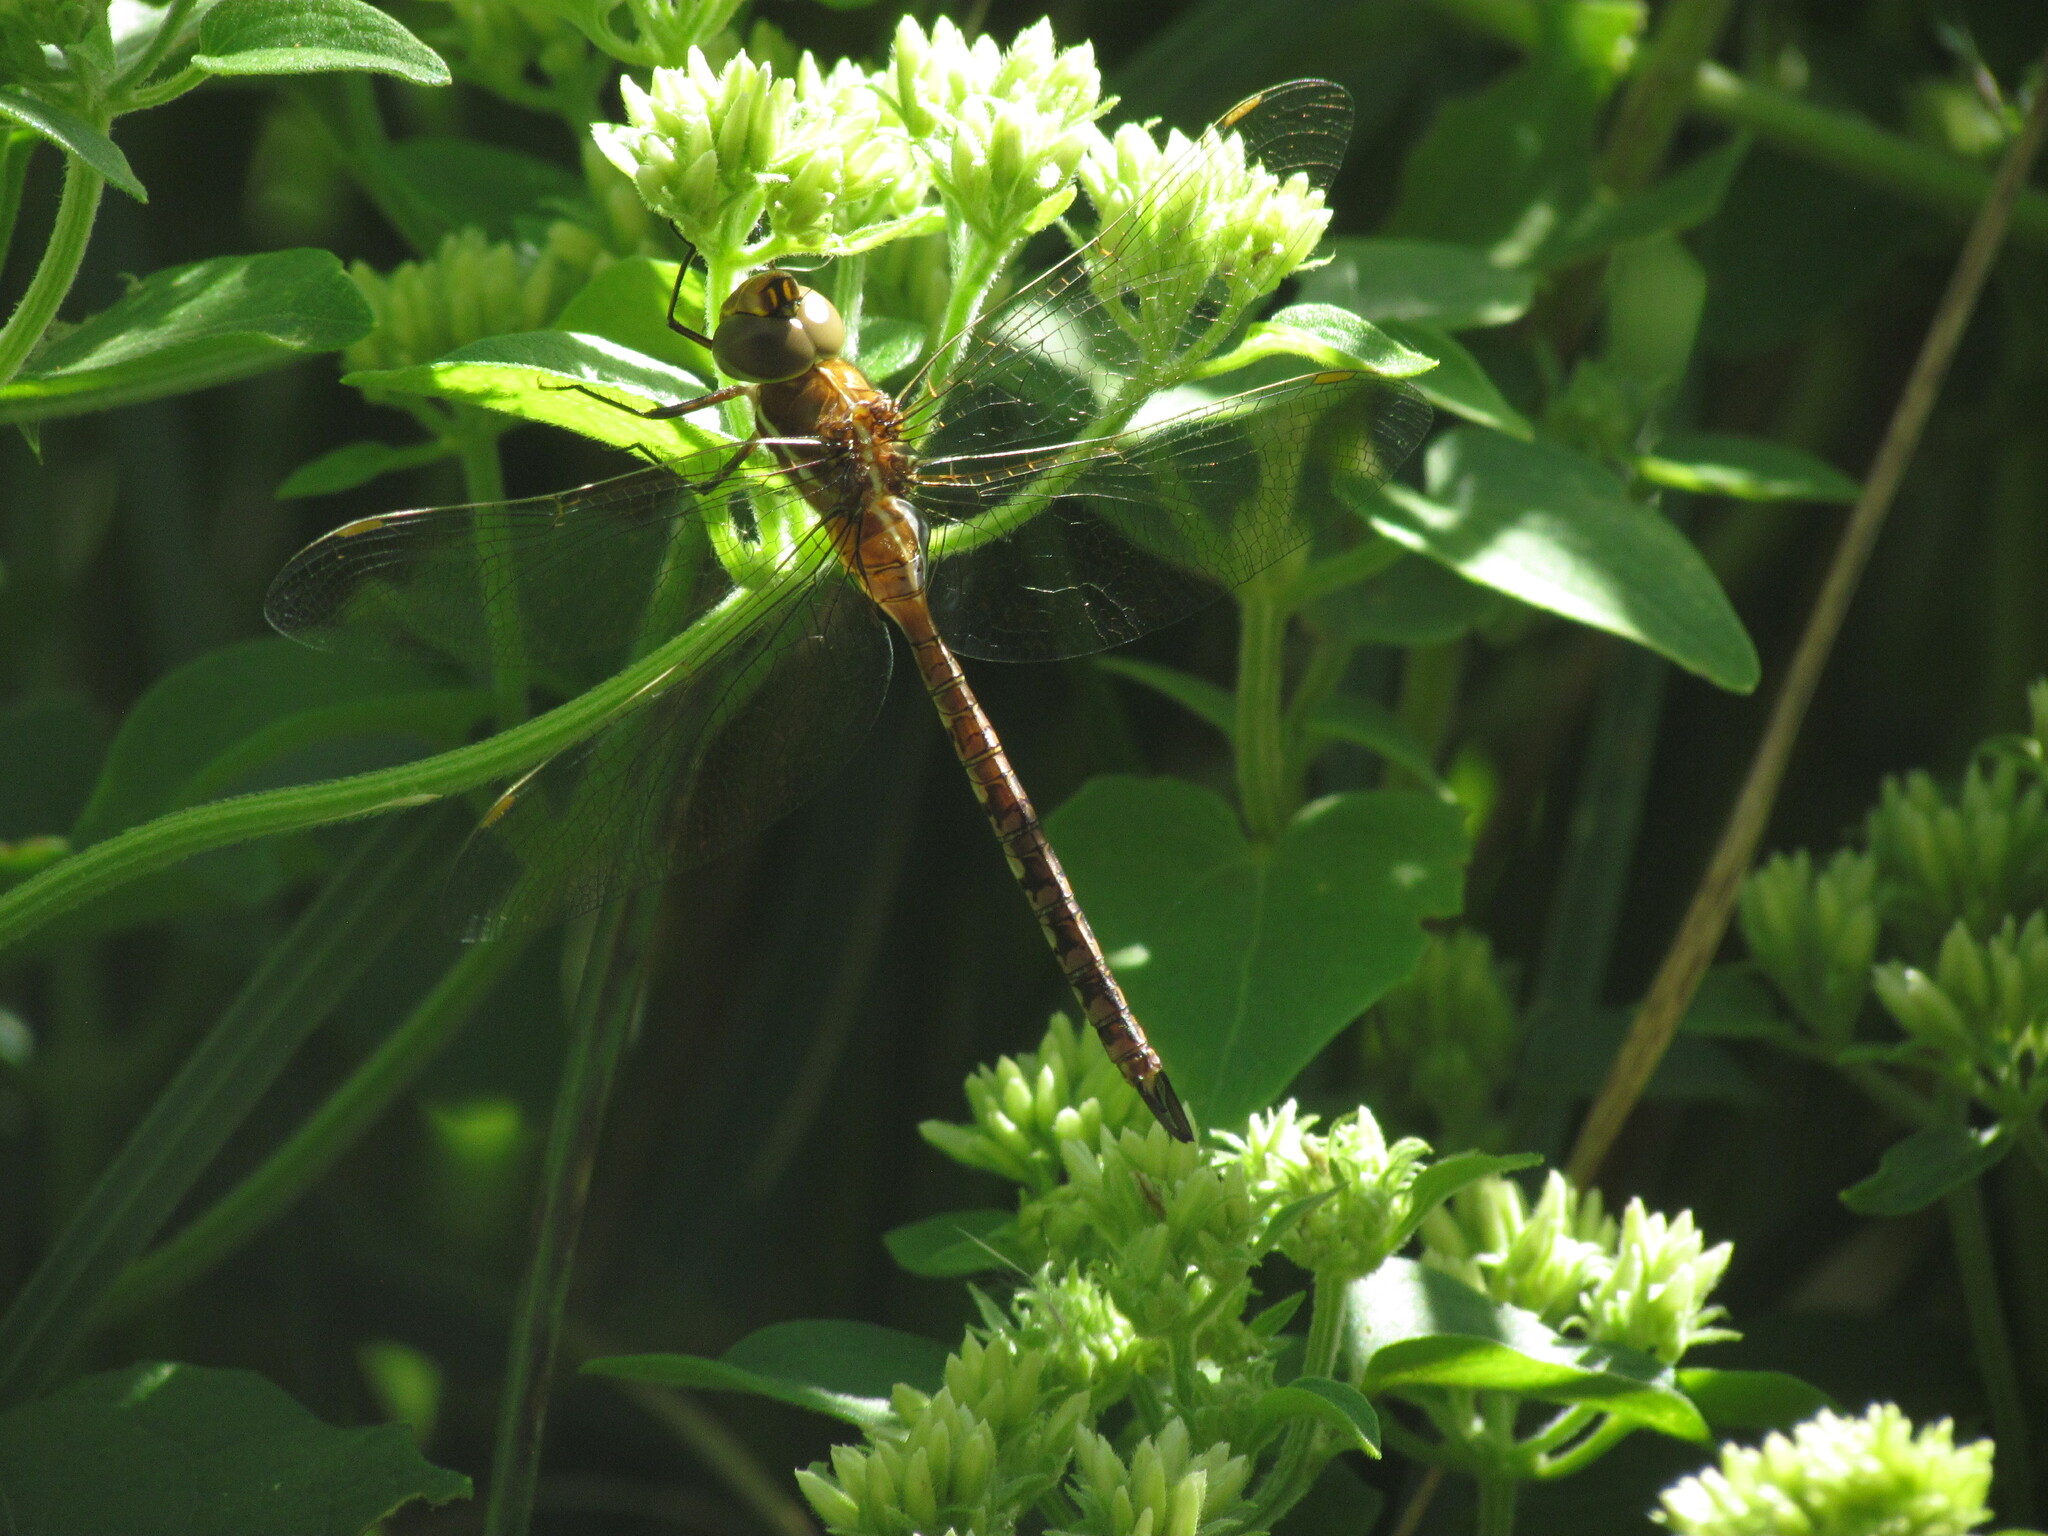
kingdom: Animalia
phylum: Arthropoda
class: Insecta
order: Odonata
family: Aeshnidae
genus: Rhionaeschna
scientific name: Rhionaeschna bonariensis
